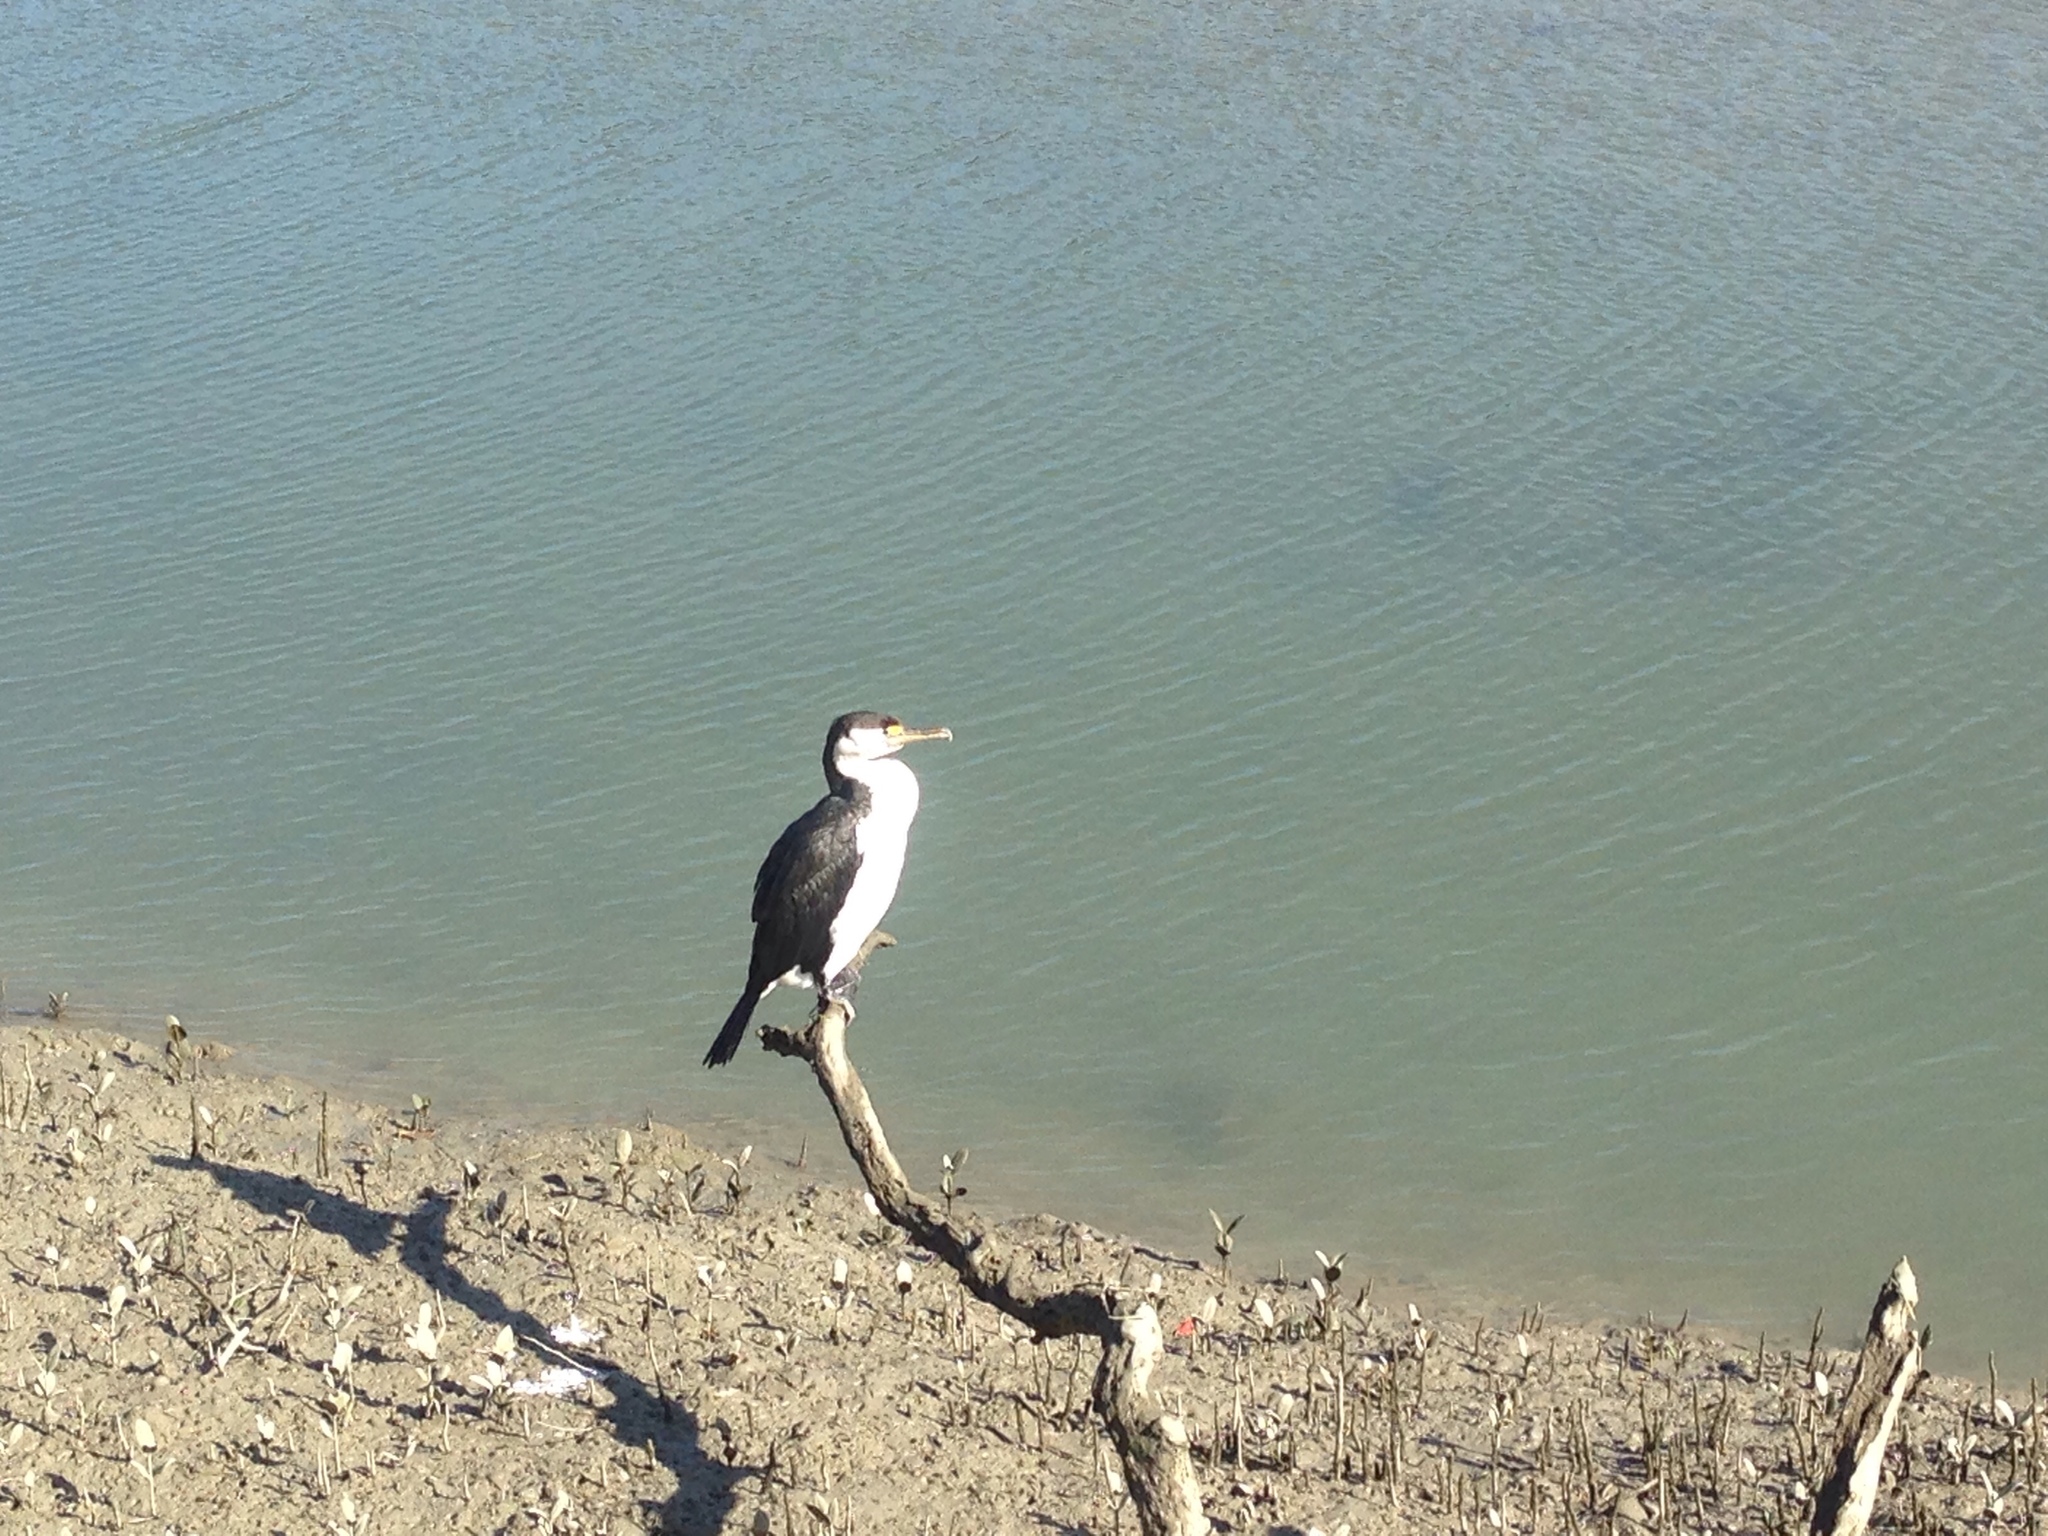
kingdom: Animalia
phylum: Chordata
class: Aves
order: Suliformes
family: Phalacrocoracidae
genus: Phalacrocorax
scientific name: Phalacrocorax varius
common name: Pied cormorant
